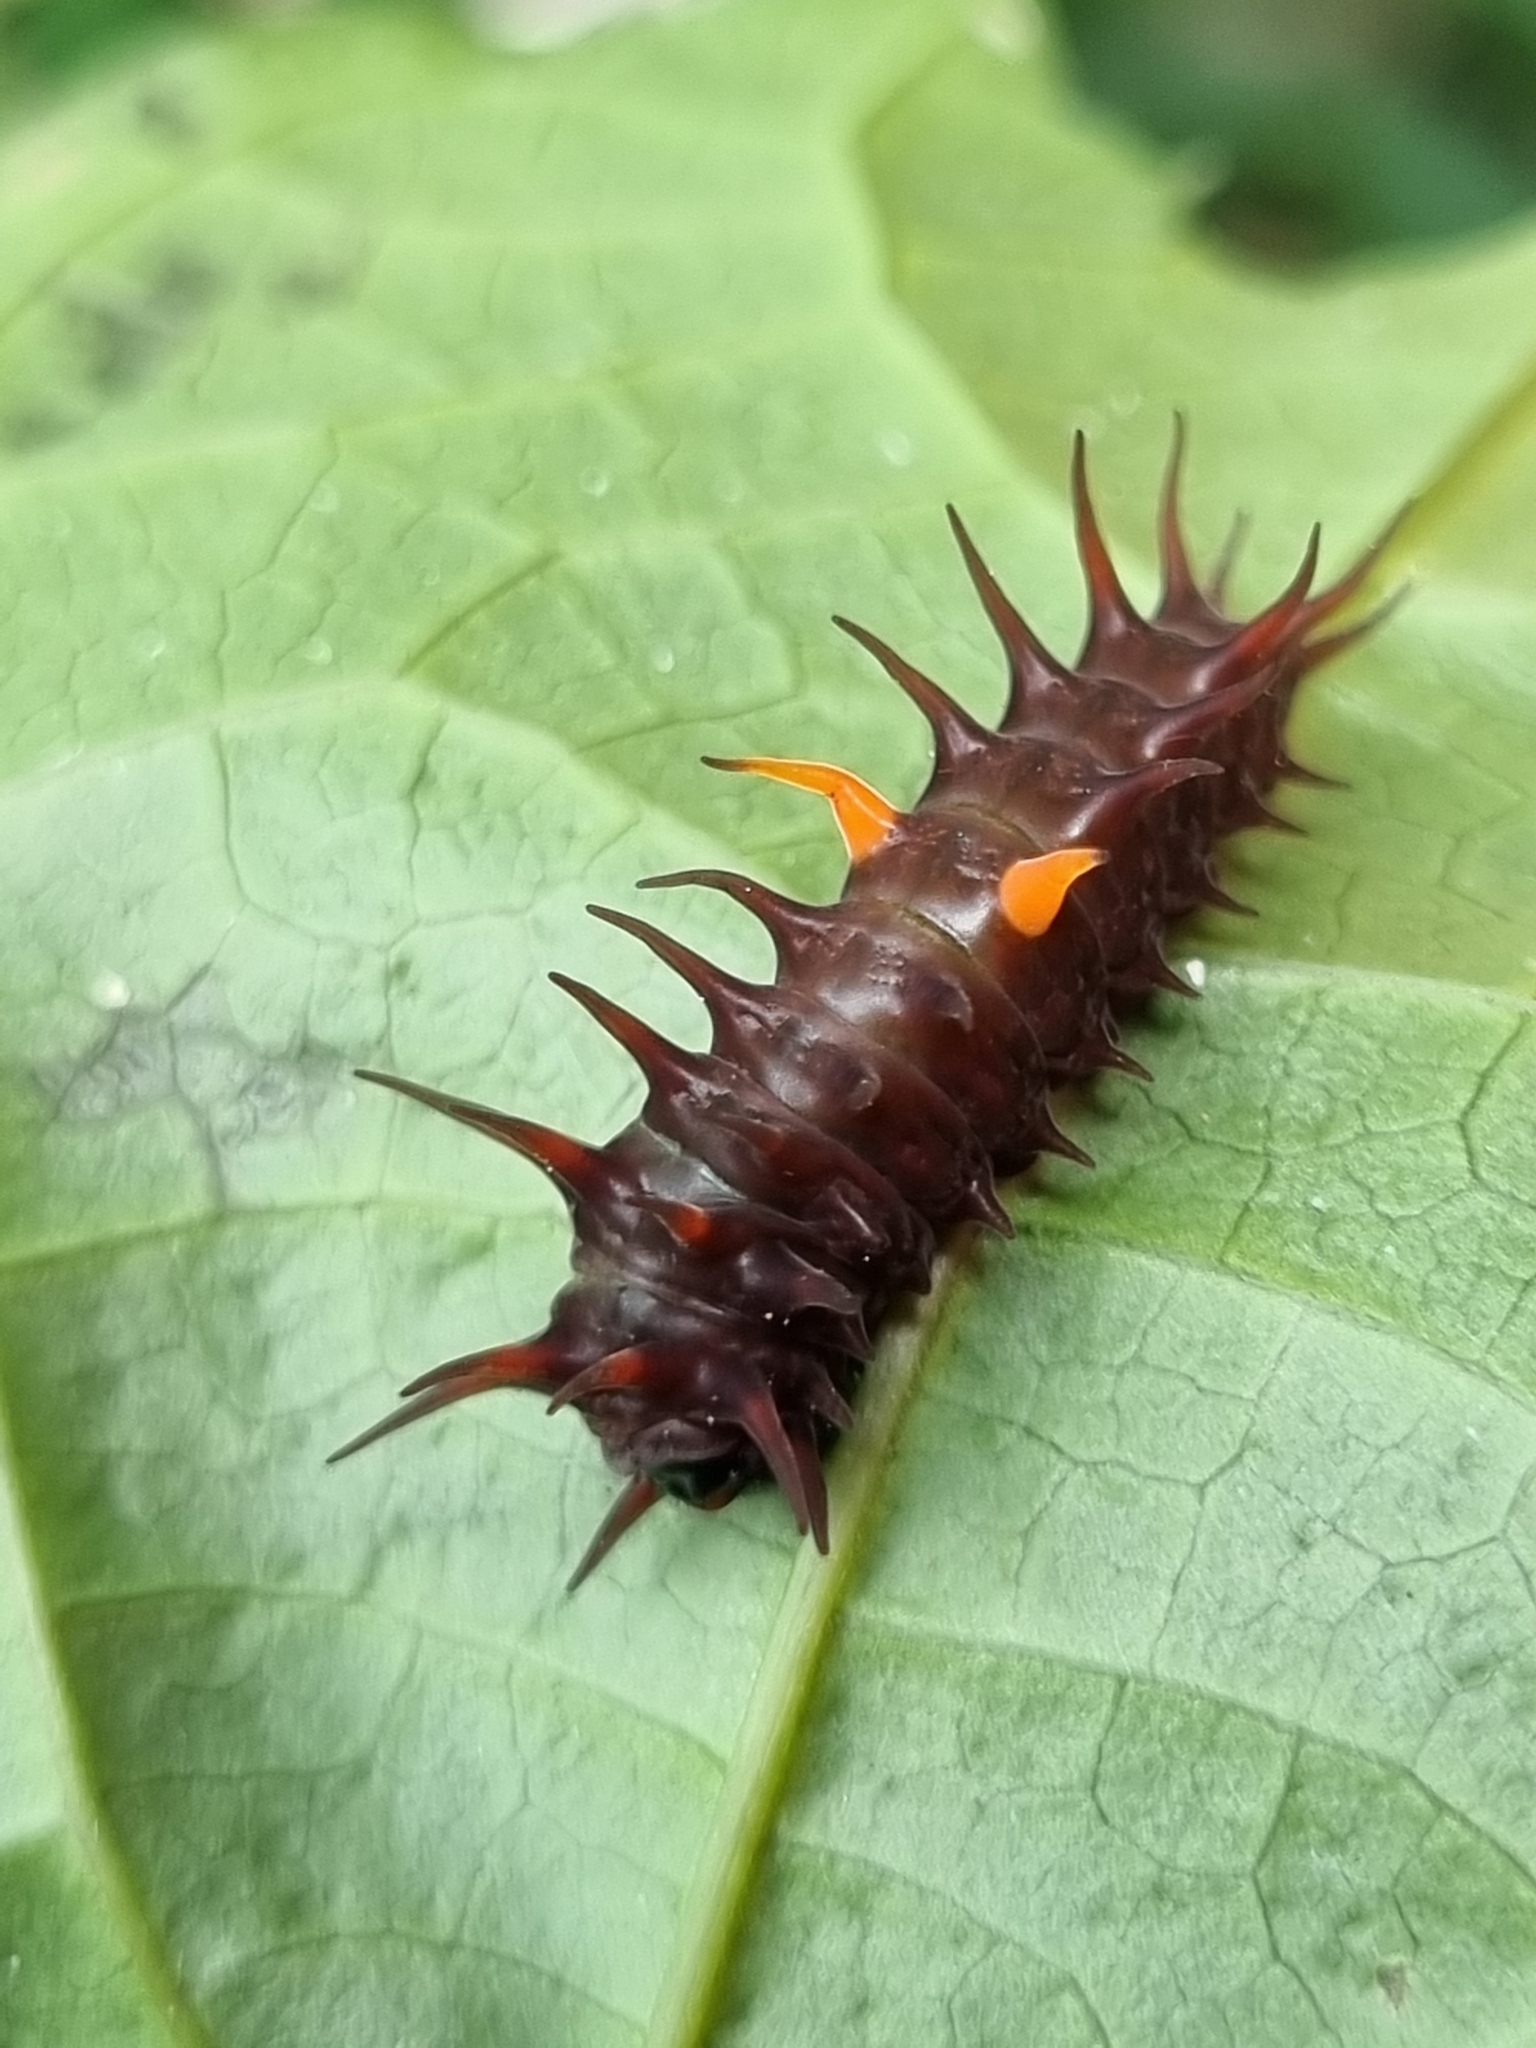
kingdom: Animalia
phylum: Arthropoda
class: Insecta
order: Lepidoptera
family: Papilionidae
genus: Ornithoptera
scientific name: Ornithoptera euphorion
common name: Cairns birdwing
